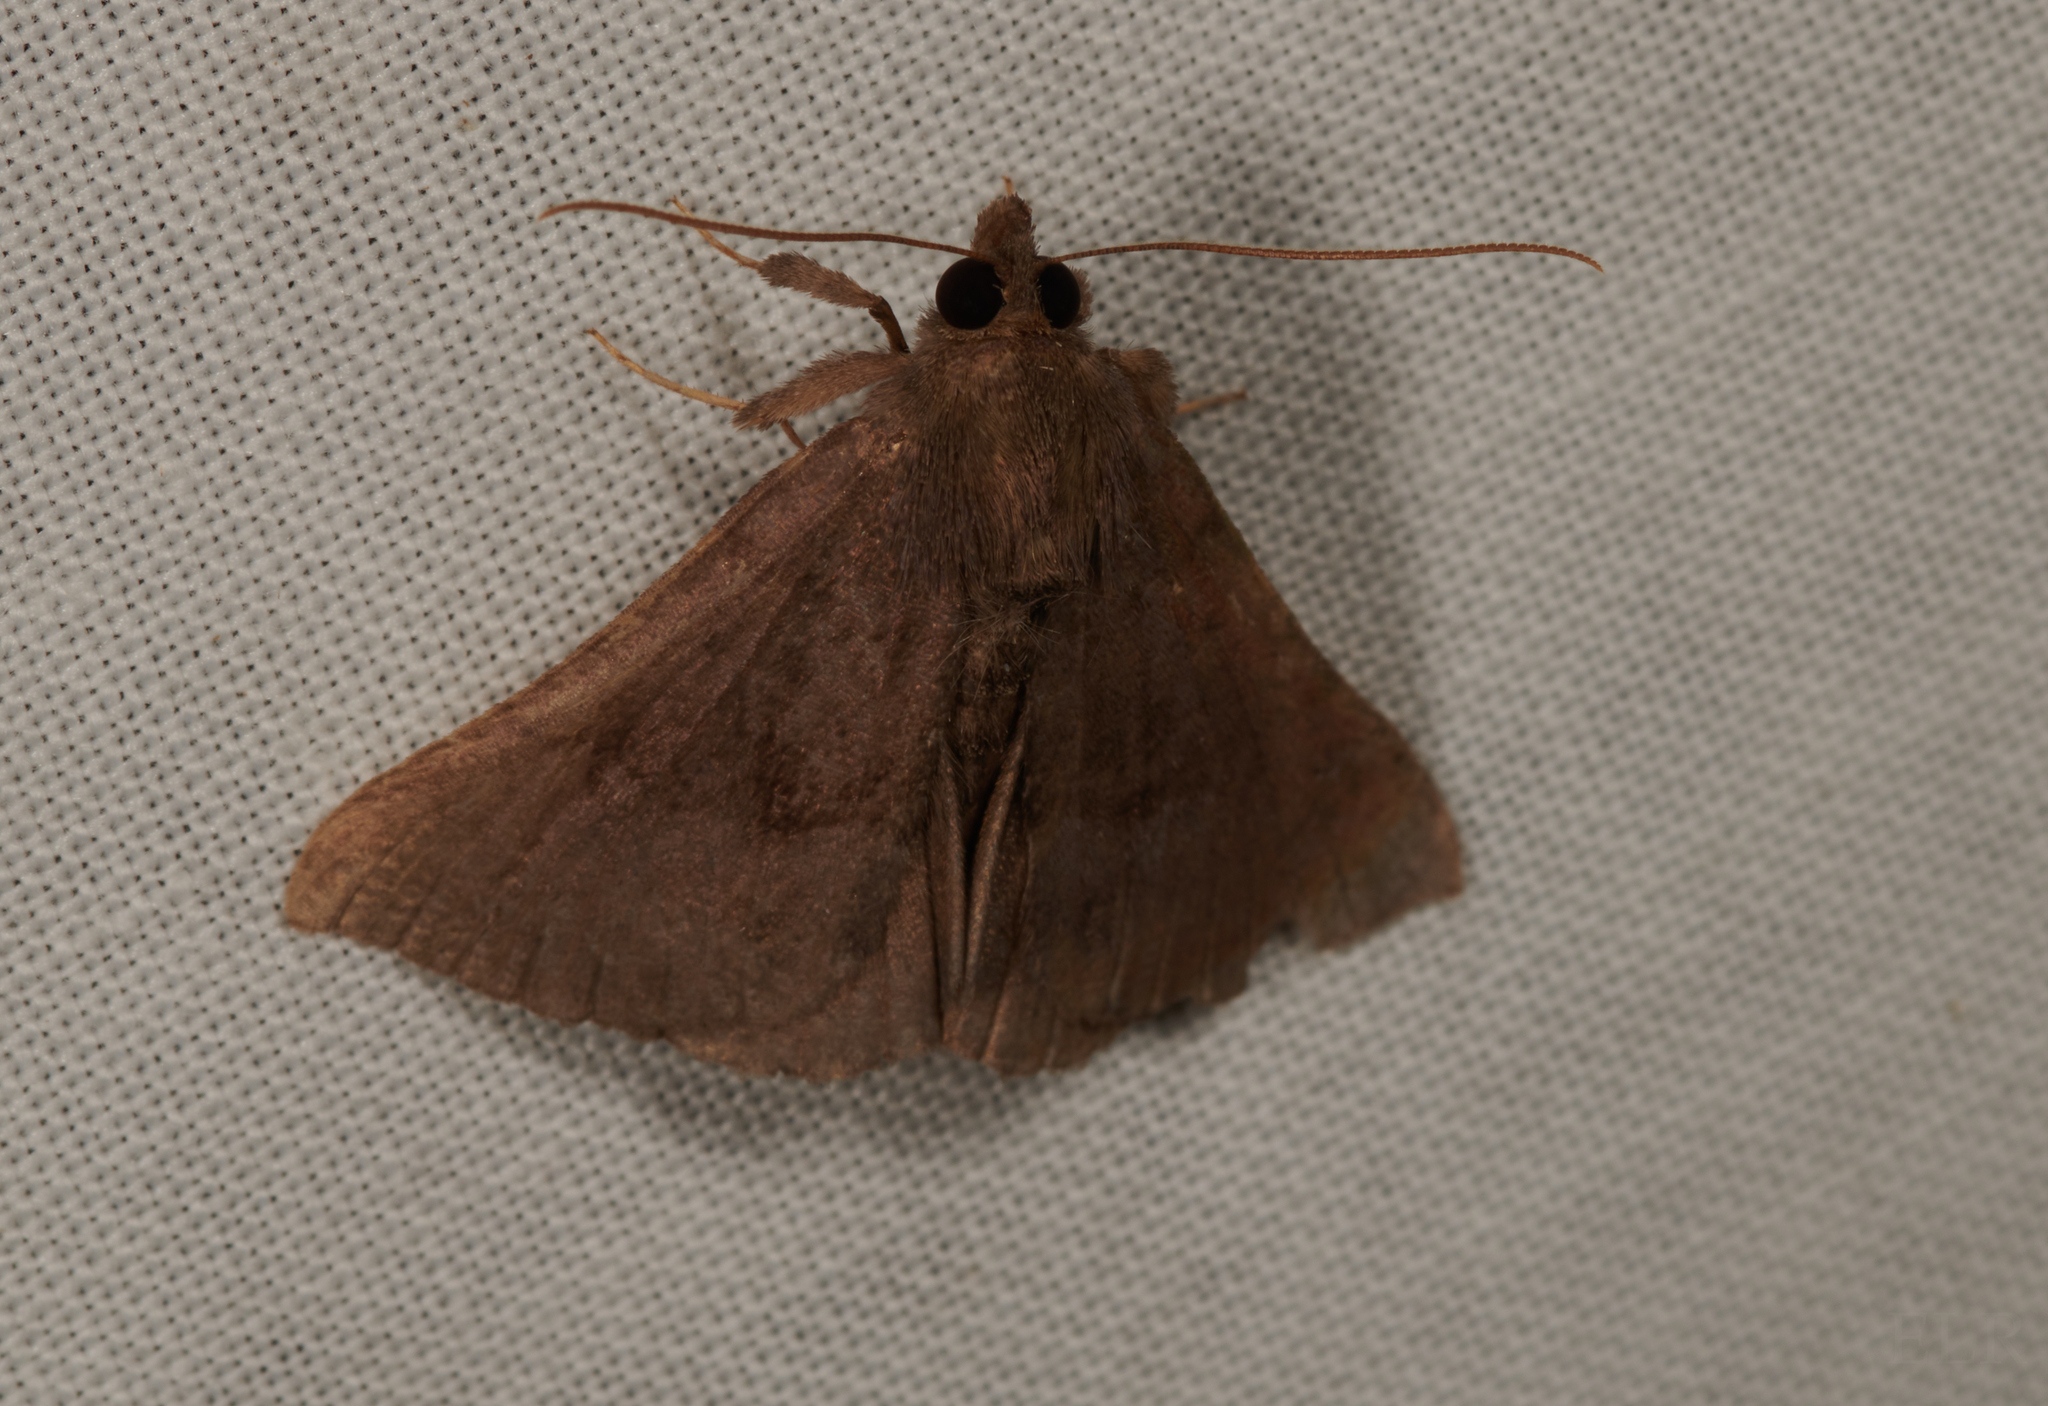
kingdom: Animalia
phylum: Arthropoda
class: Insecta
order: Lepidoptera
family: Erebidae
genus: Hypena
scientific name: Hypena madefactalis
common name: Gray-edged snout
